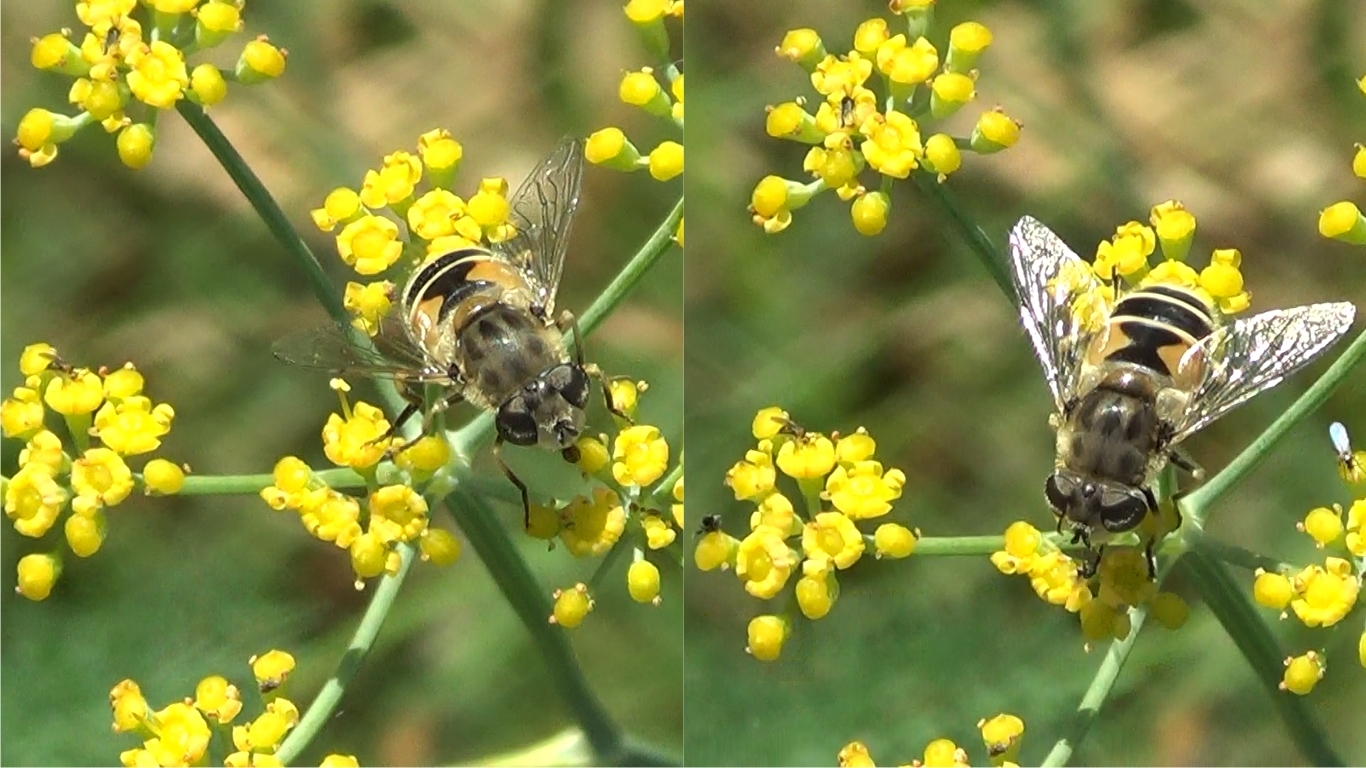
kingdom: Animalia
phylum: Arthropoda
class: Insecta
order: Diptera
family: Syrphidae
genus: Eristalis
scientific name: Eristalis arbustorum
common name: Hover fly
